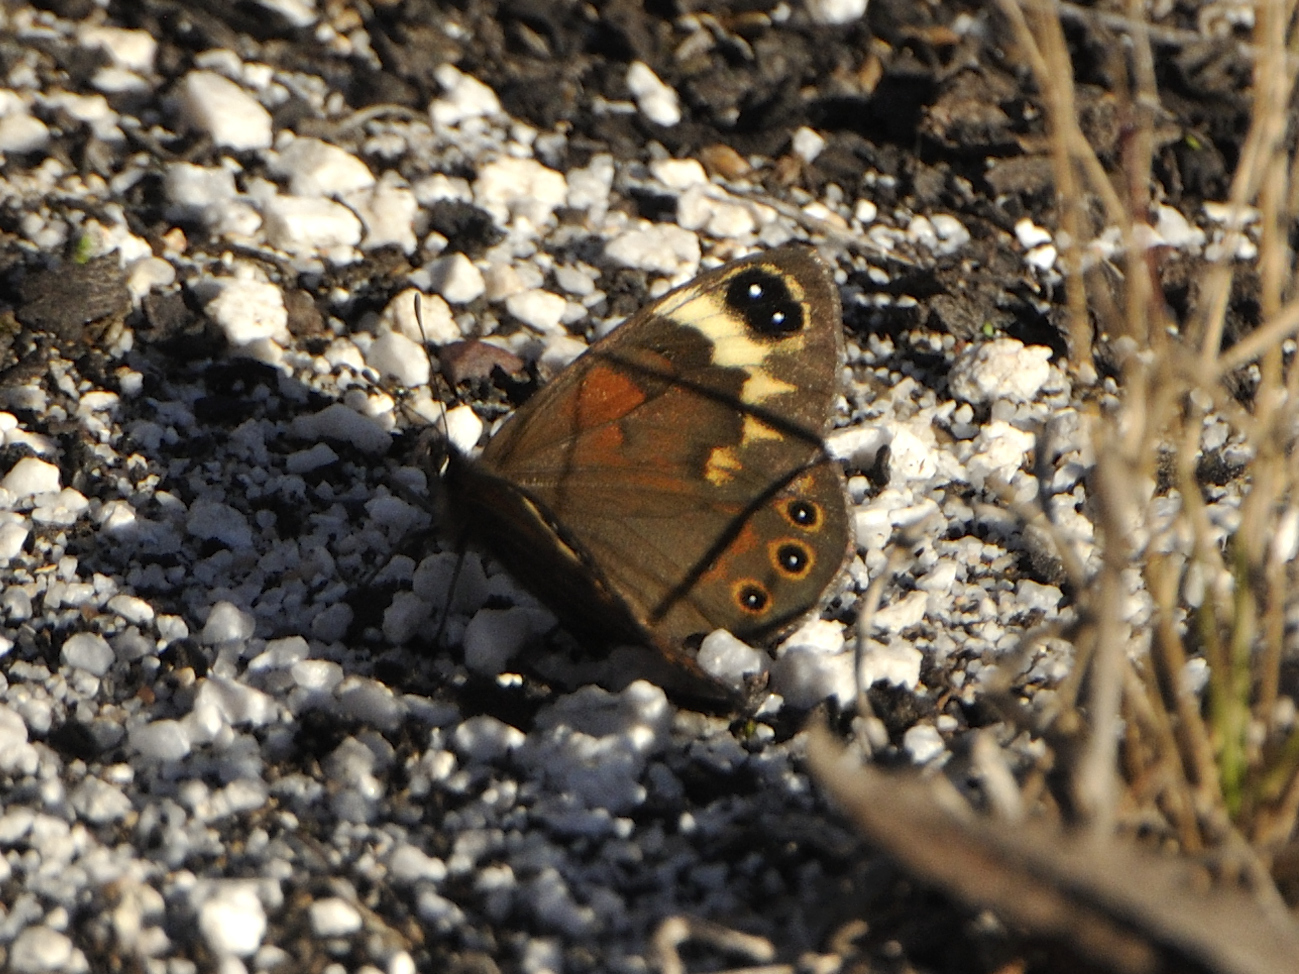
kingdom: Animalia
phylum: Arthropoda
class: Insecta
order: Lepidoptera
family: Nymphalidae
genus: Torynesis
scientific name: Torynesis hawequas
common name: Hawequas widow
